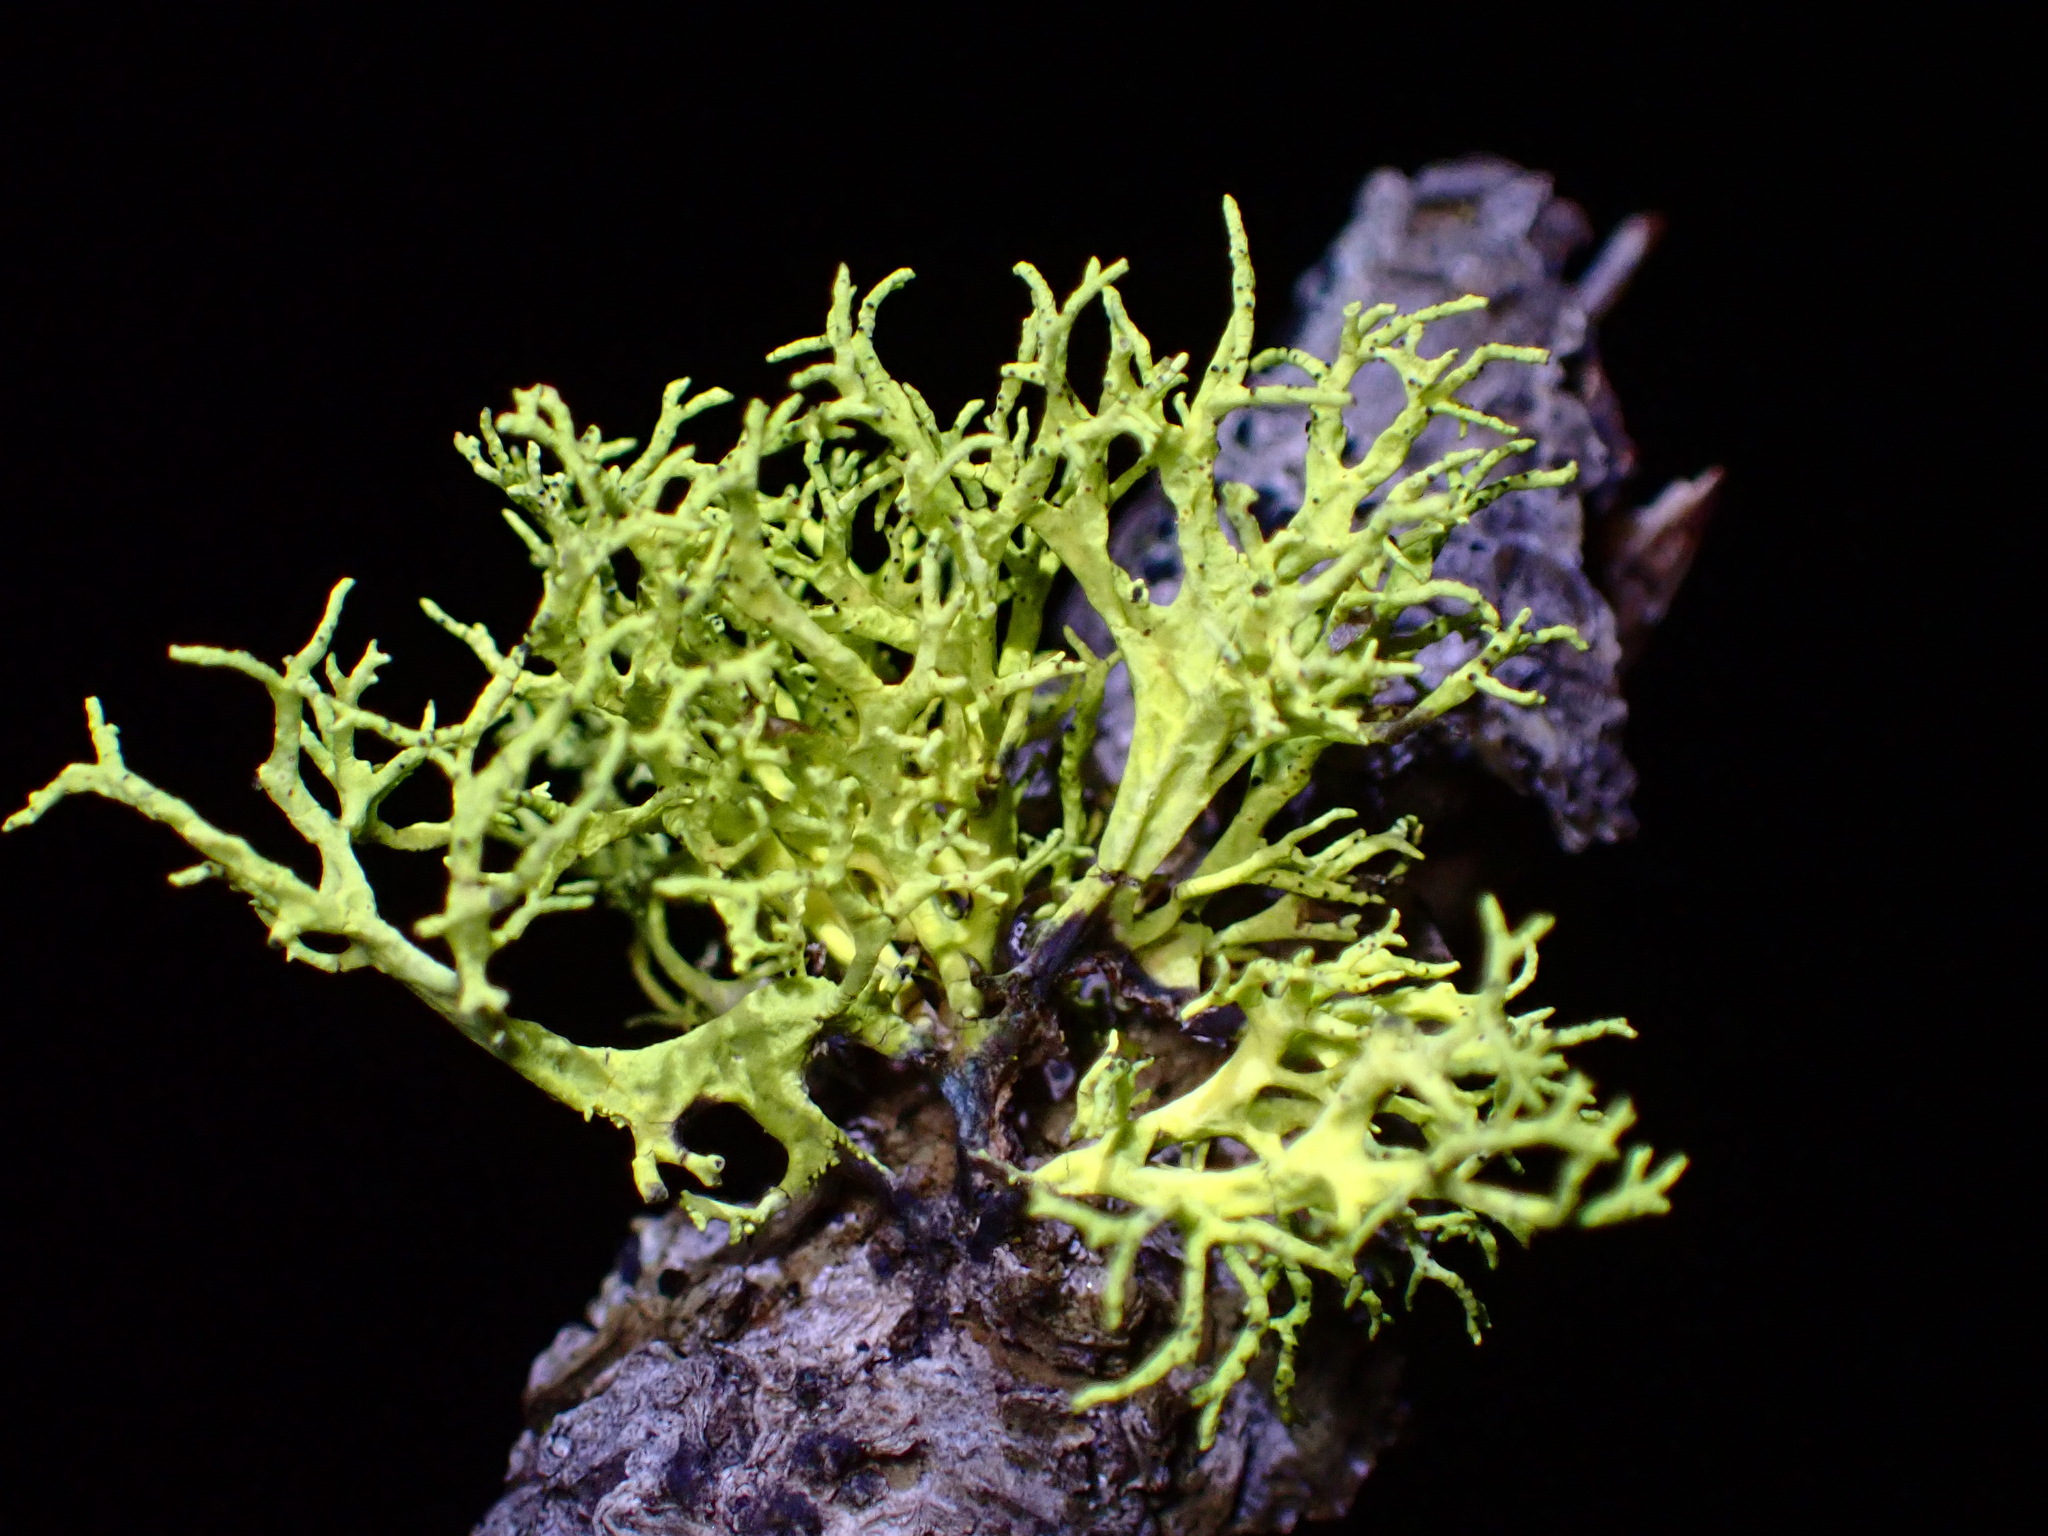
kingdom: Fungi
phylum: Ascomycota
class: Lecanoromycetes
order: Lecanorales
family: Parmeliaceae
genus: Letharia
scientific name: Letharia vulpina
